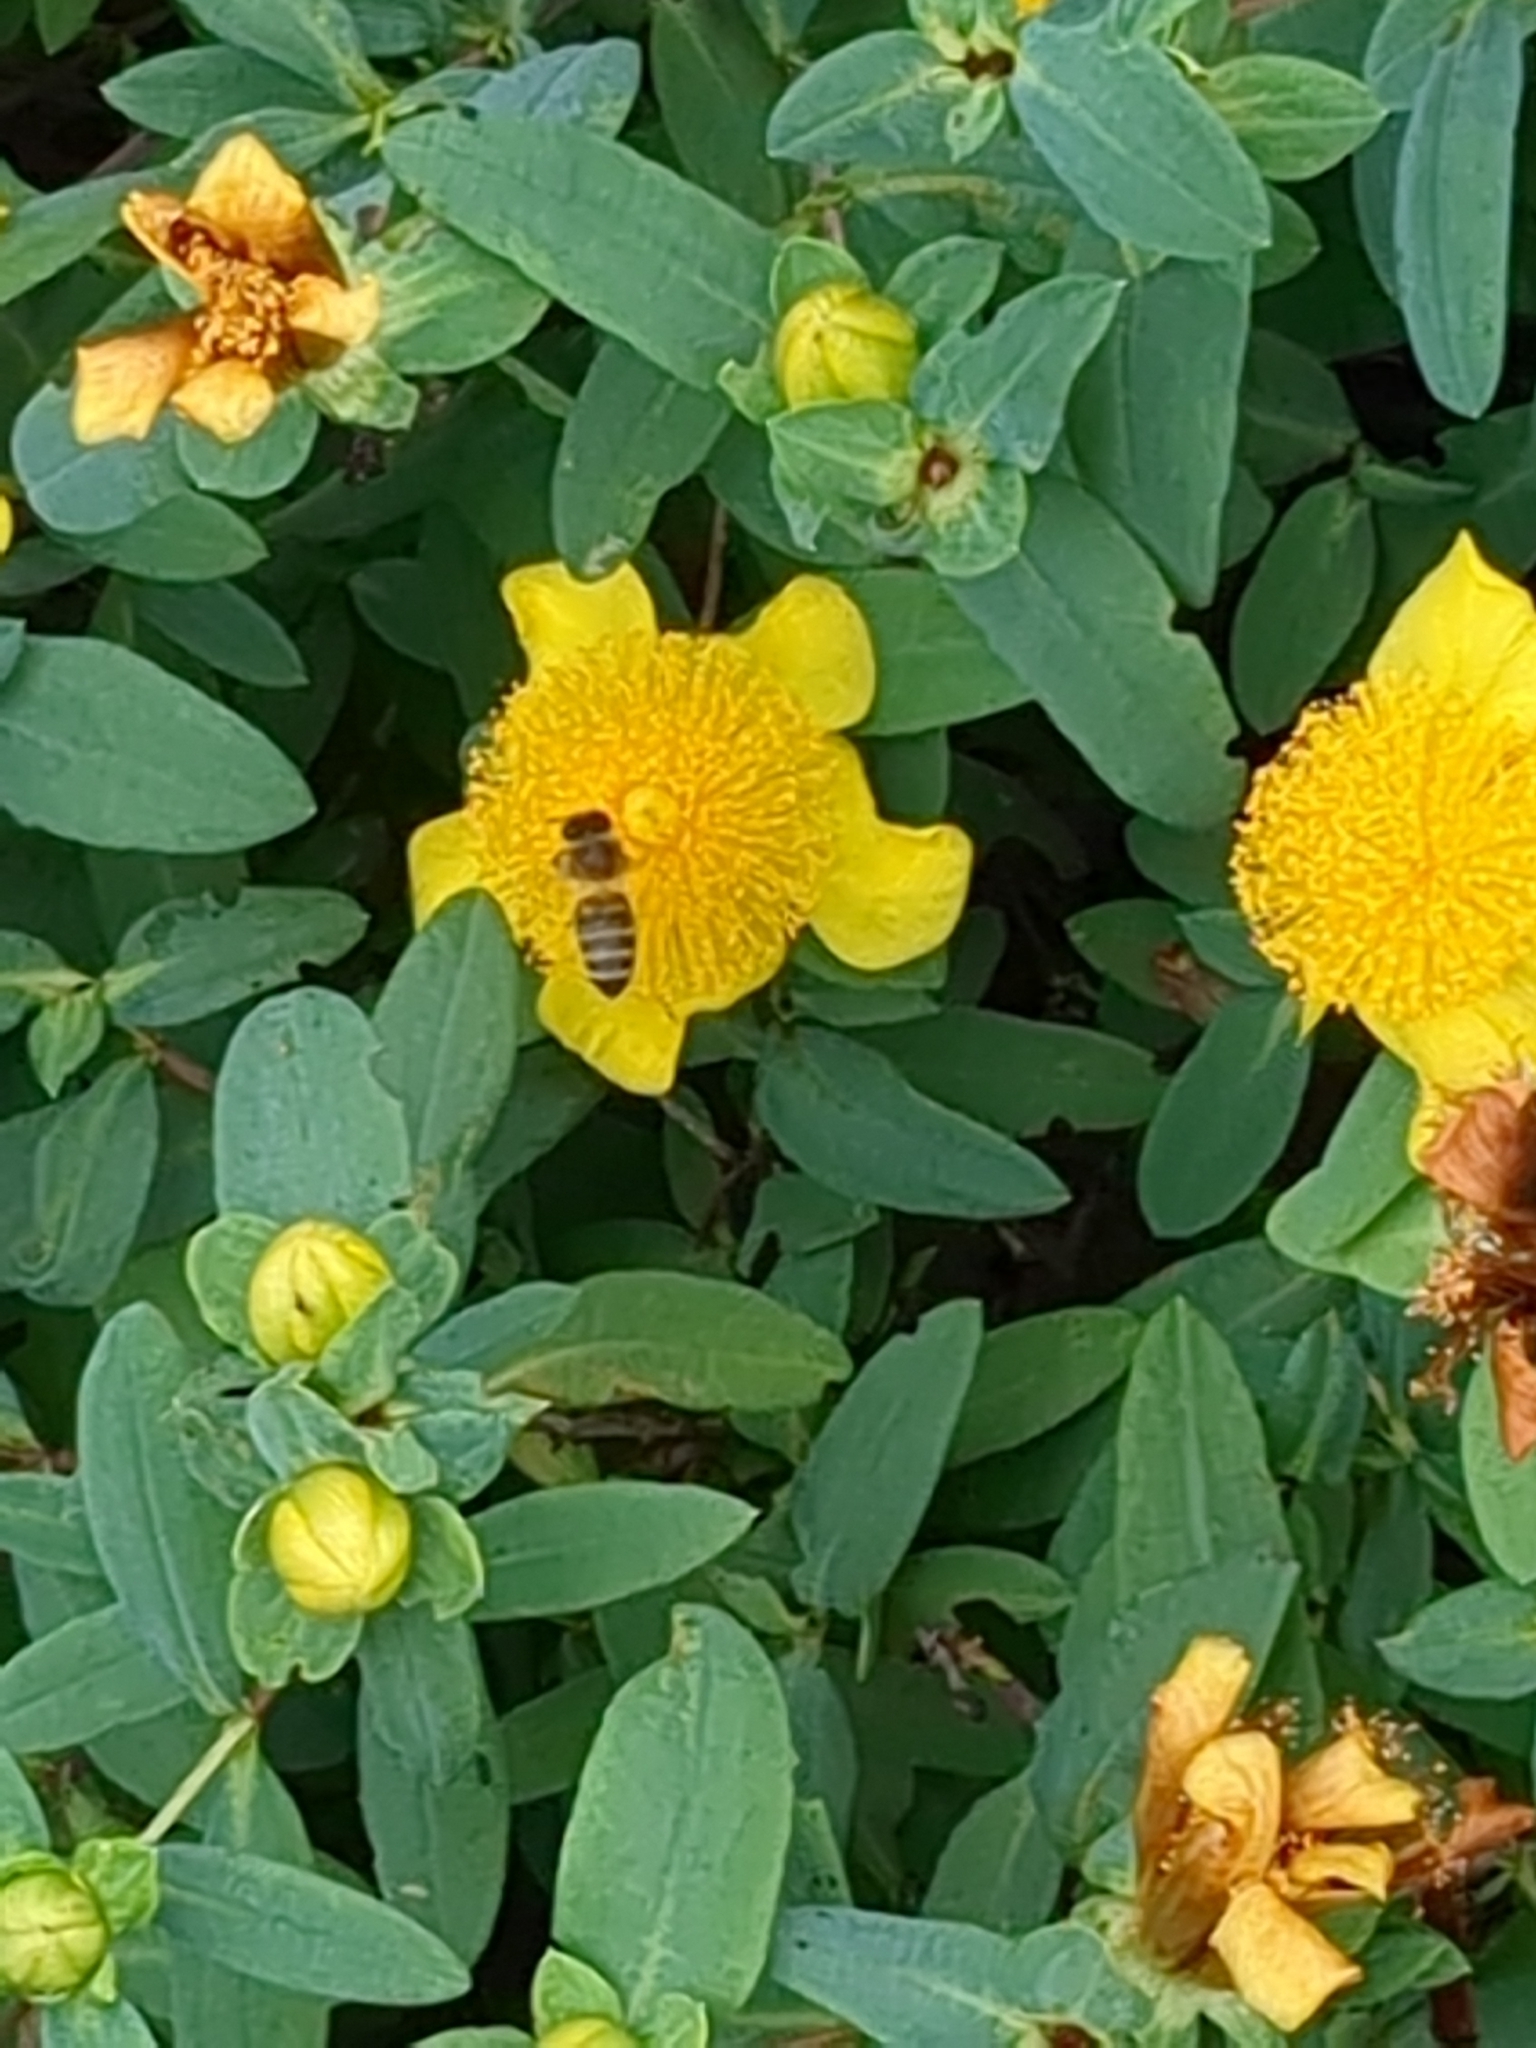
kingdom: Animalia
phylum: Arthropoda
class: Insecta
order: Hymenoptera
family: Apidae
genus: Apis
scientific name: Apis mellifera
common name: Honey bee
